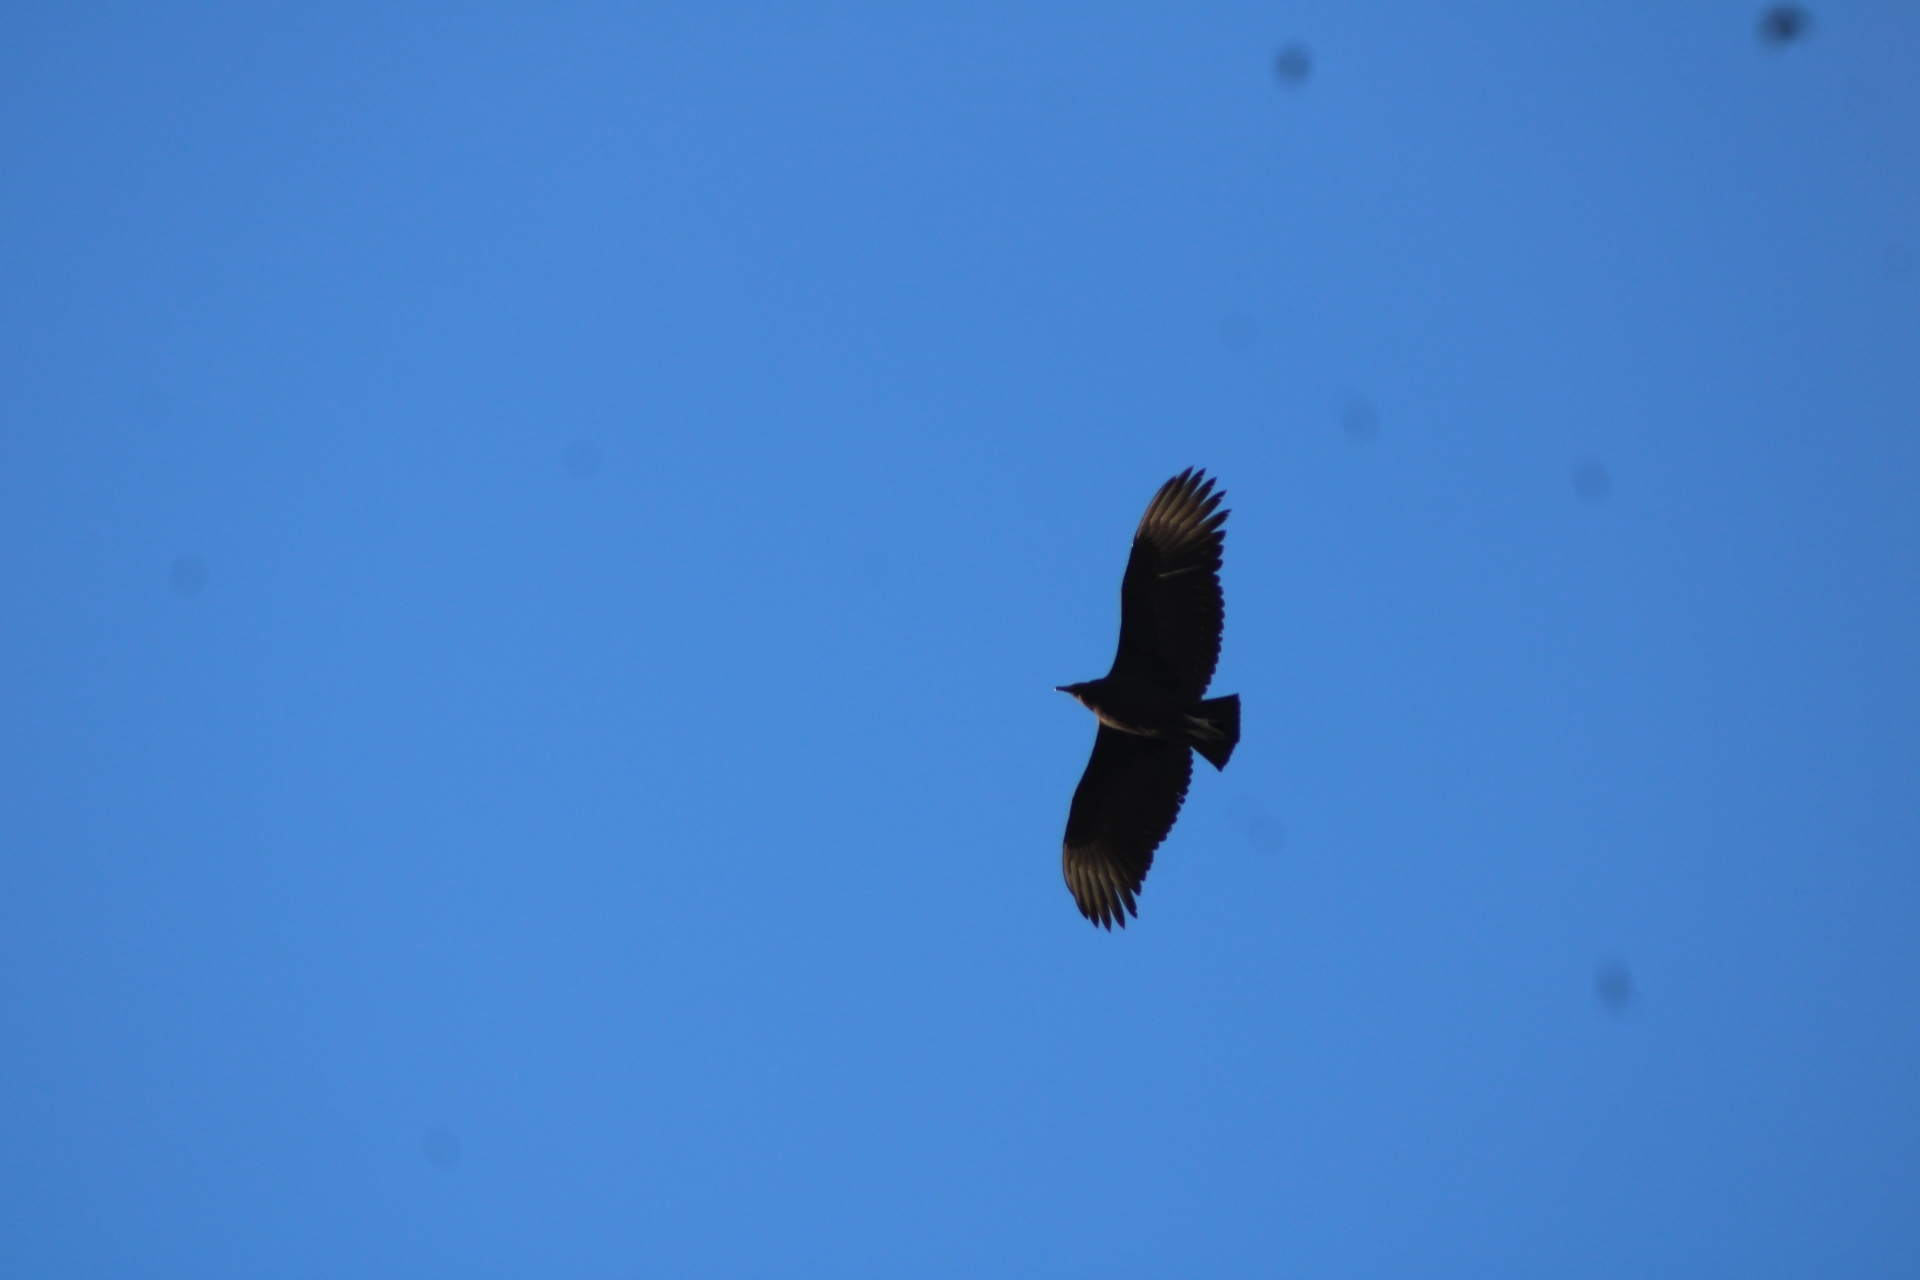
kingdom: Animalia
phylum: Chordata
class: Aves
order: Accipitriformes
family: Cathartidae
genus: Coragyps
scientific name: Coragyps atratus
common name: Black vulture
